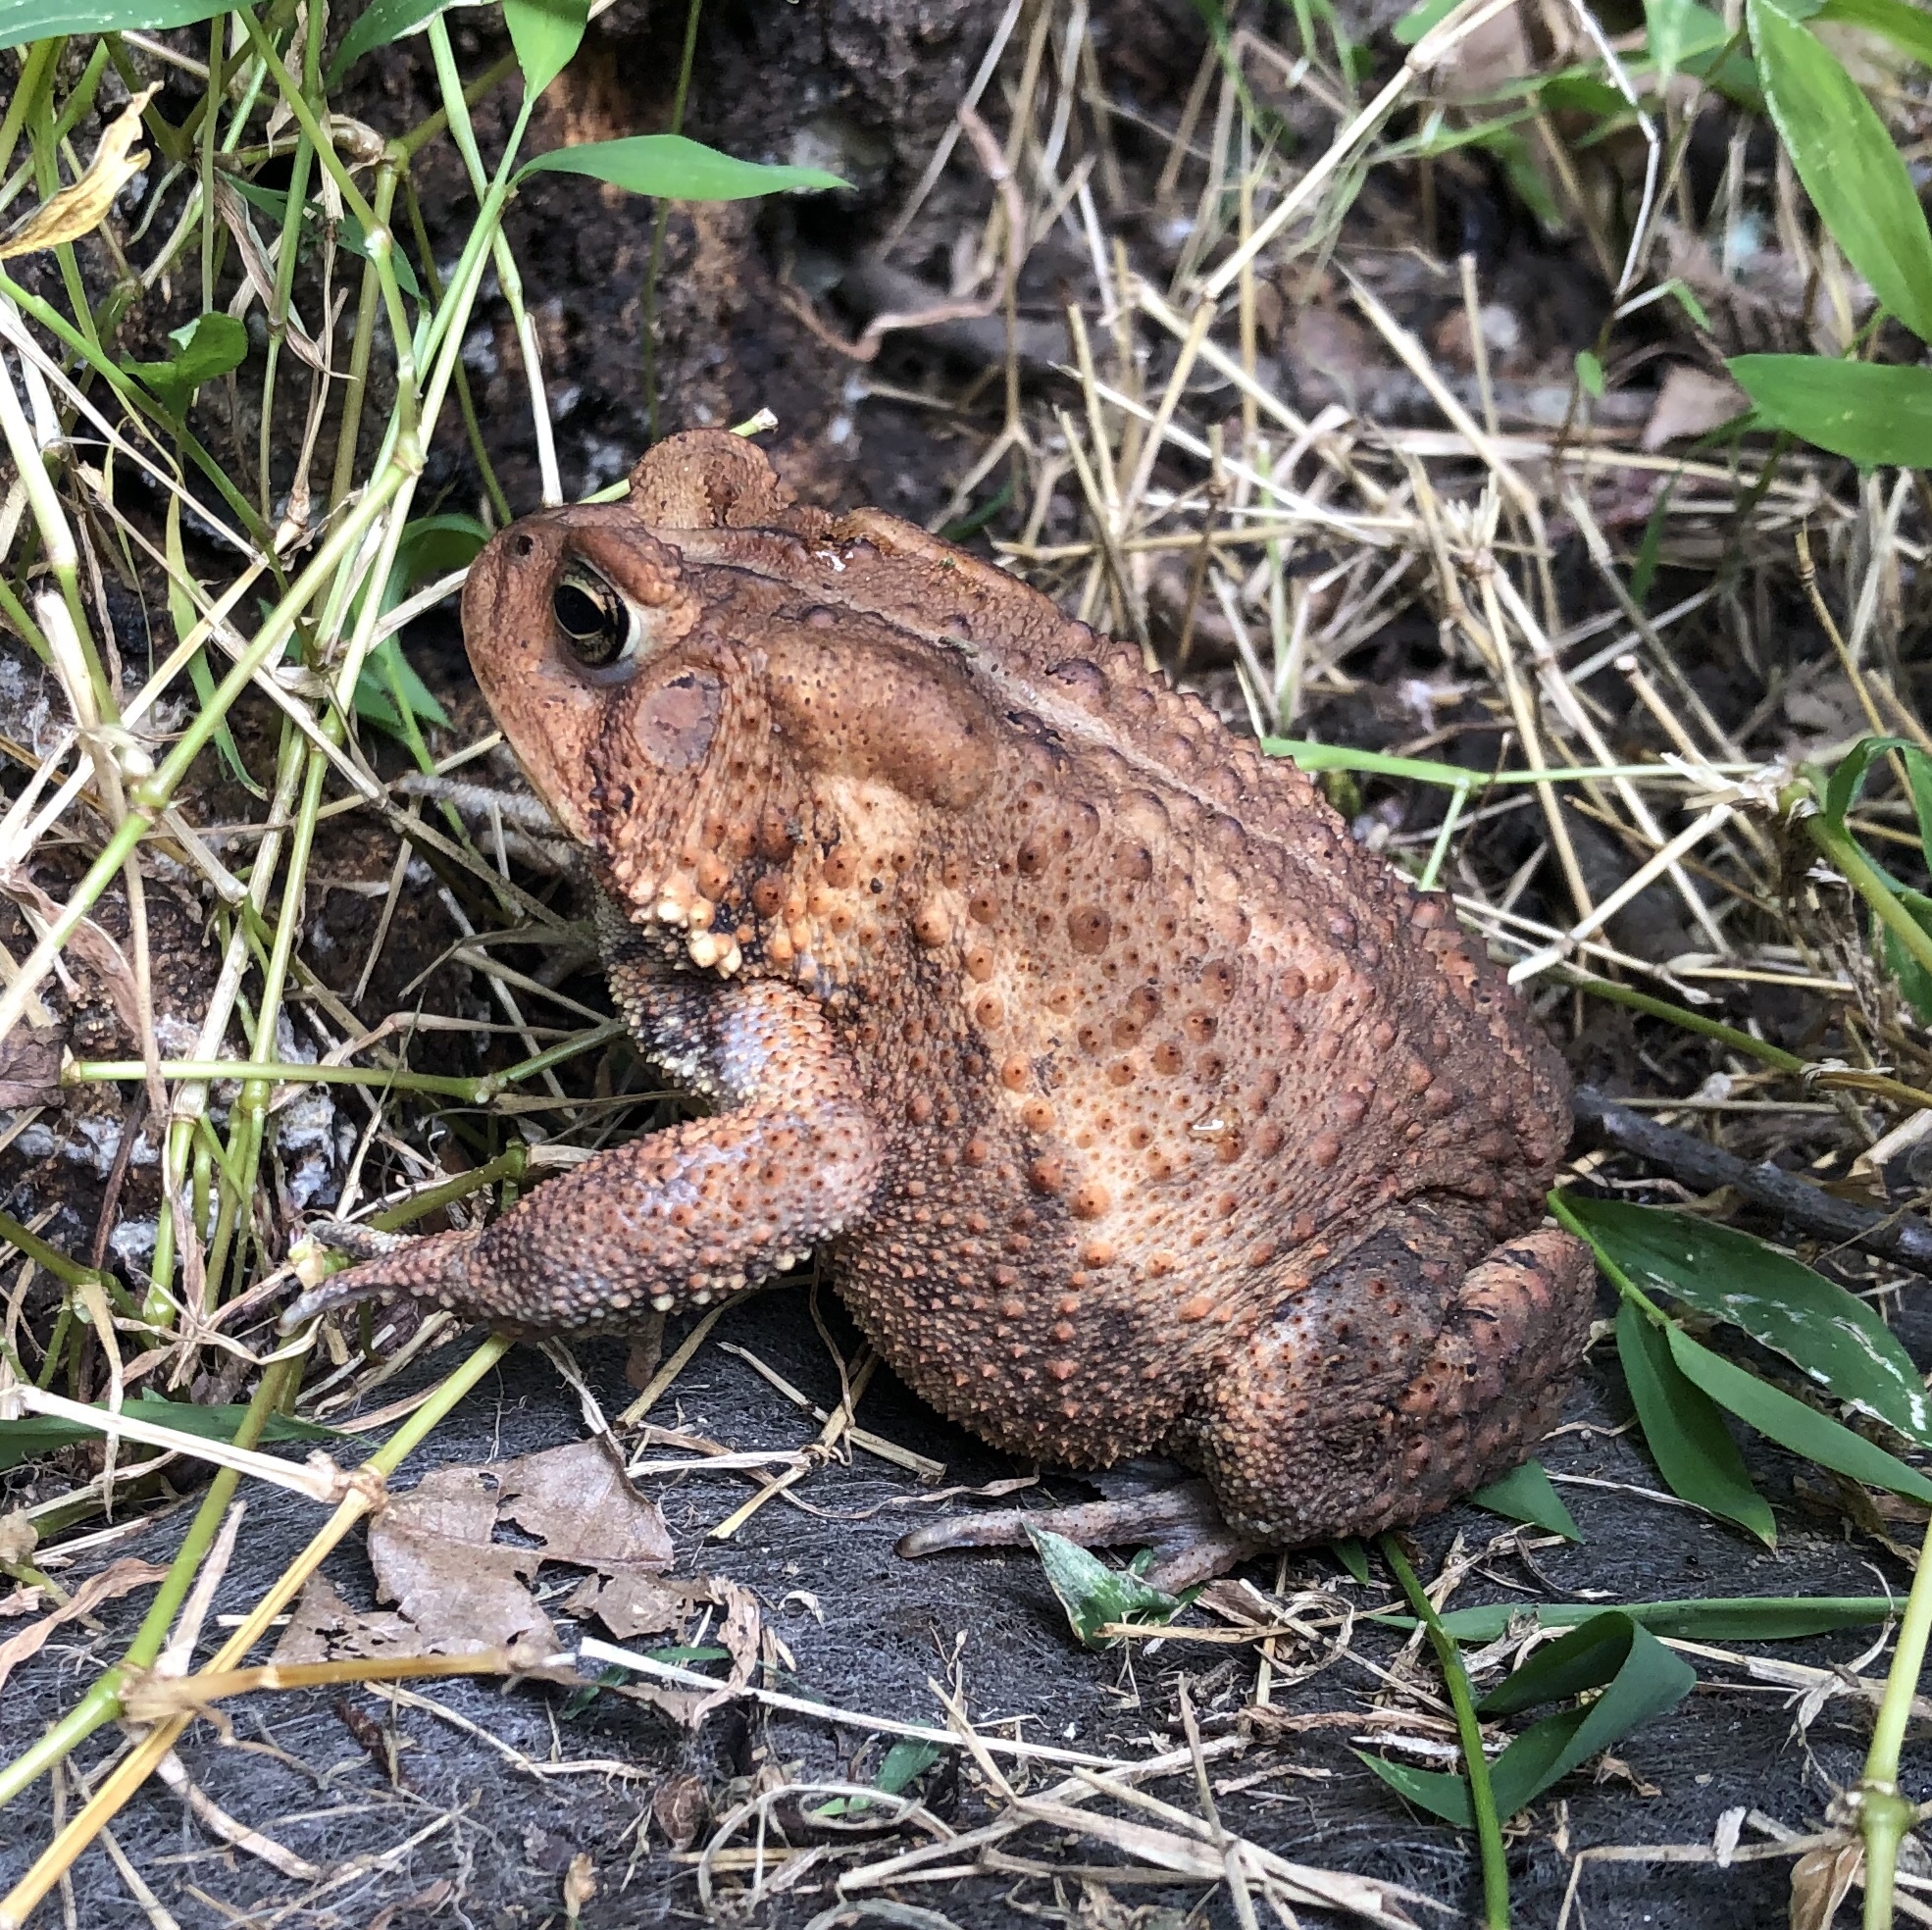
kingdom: Animalia
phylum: Chordata
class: Amphibia
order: Anura
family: Bufonidae
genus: Anaxyrus
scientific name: Anaxyrus americanus
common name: American toad
